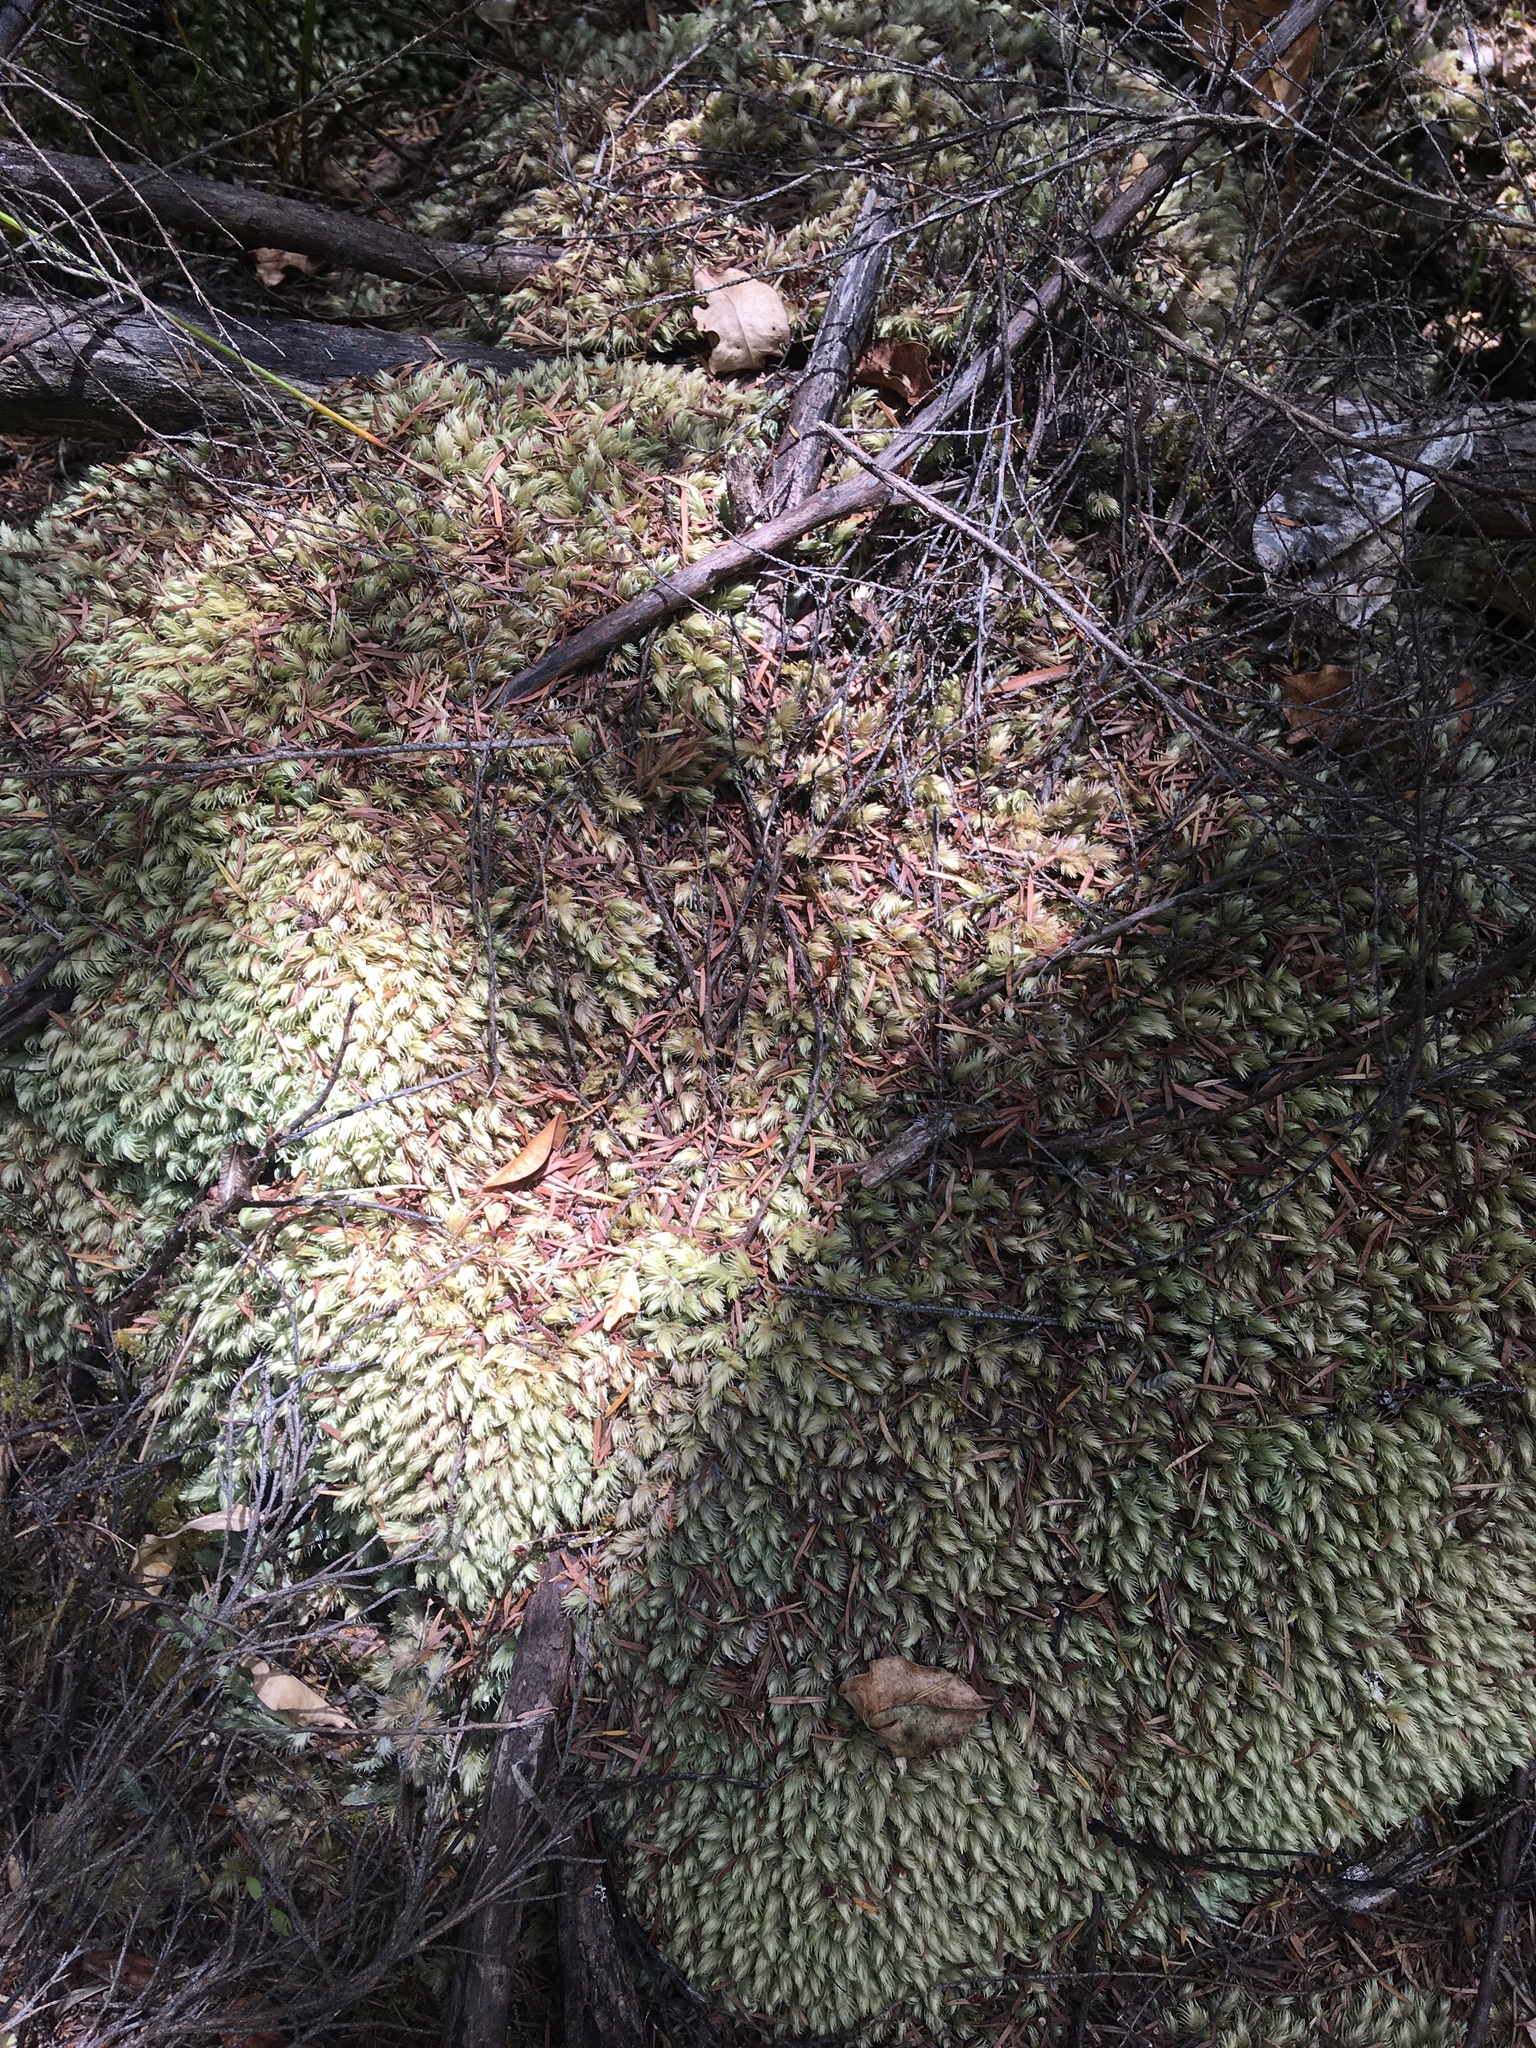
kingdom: Plantae
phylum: Bryophyta
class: Bryopsida
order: Dicranales
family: Leucobryaceae
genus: Leucobryum
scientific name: Leucobryum javense
